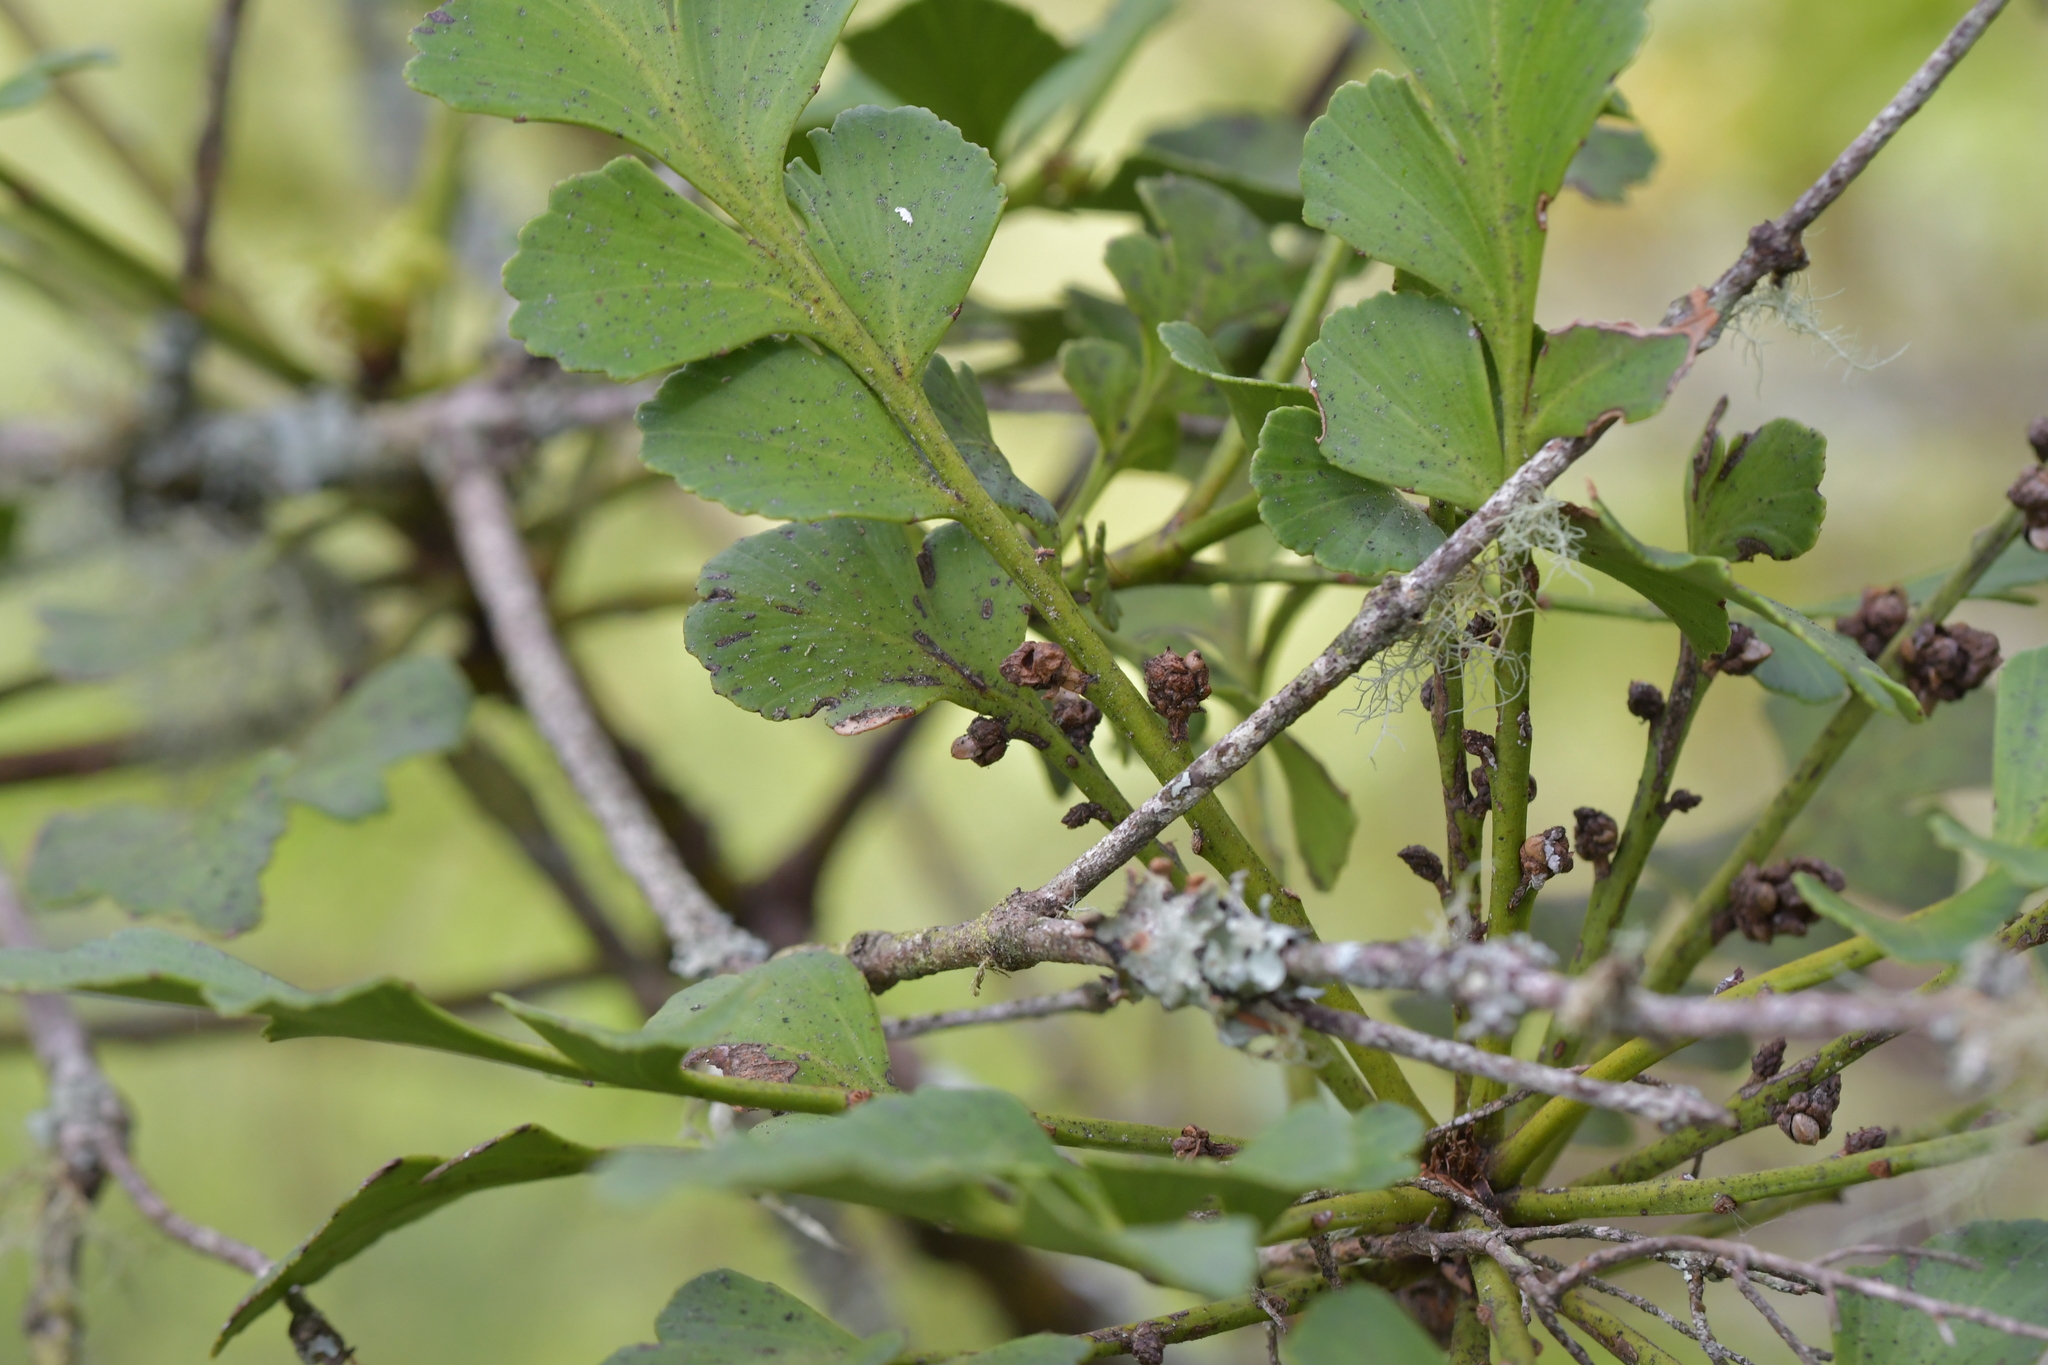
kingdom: Plantae
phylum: Tracheophyta
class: Pinopsida
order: Pinales
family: Phyllocladaceae
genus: Phyllocladus
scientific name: Phyllocladus toatoa
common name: Celery-top pine
